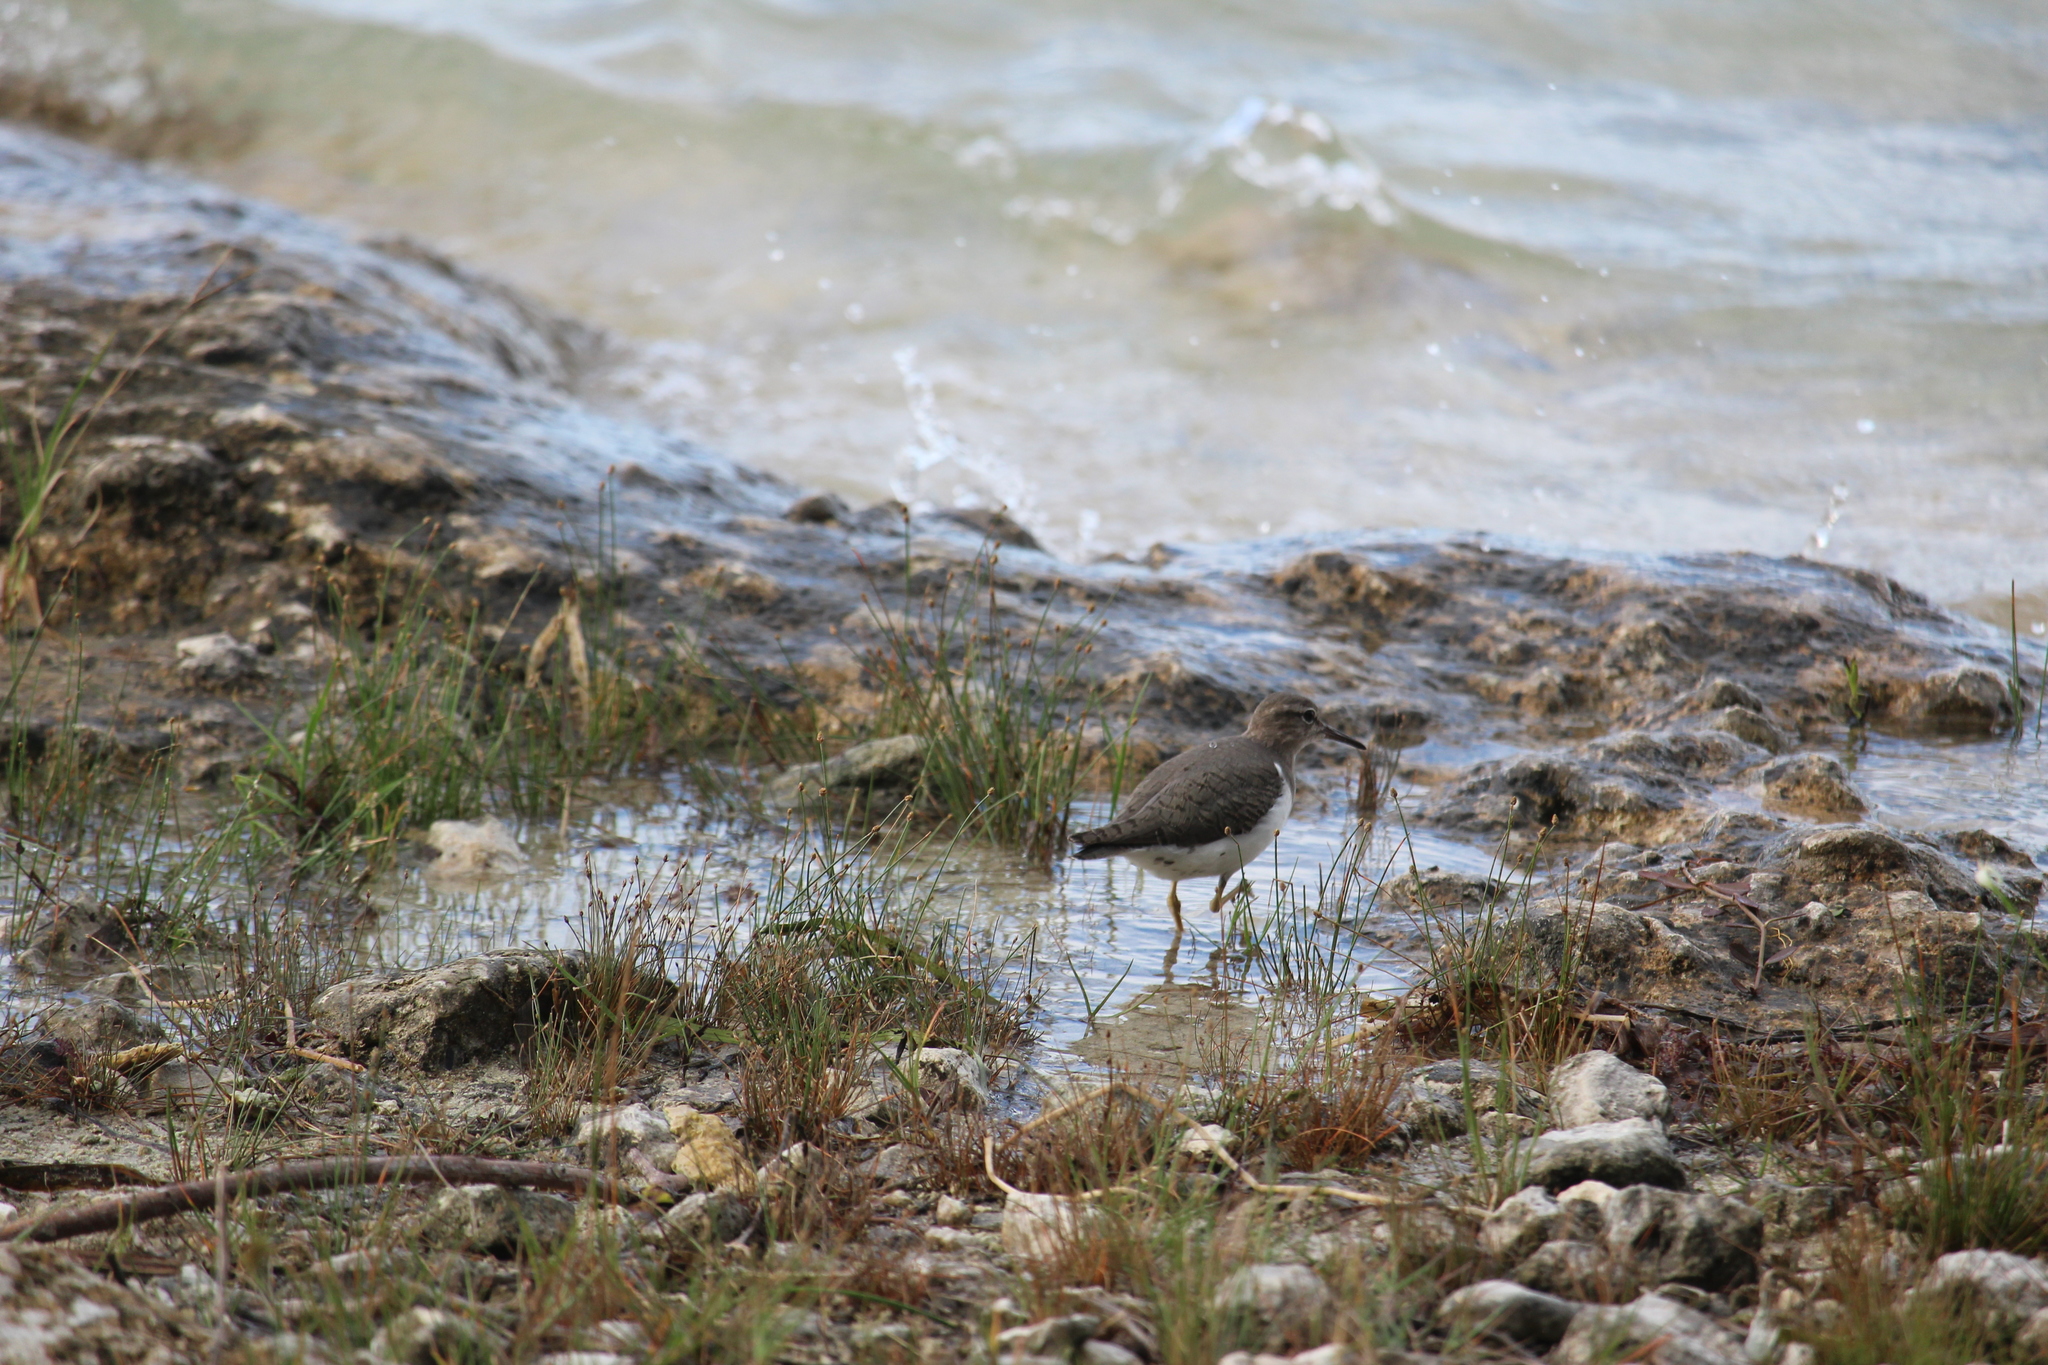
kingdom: Animalia
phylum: Chordata
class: Aves
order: Charadriiformes
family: Scolopacidae
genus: Actitis
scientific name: Actitis macularius
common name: Spotted sandpiper
